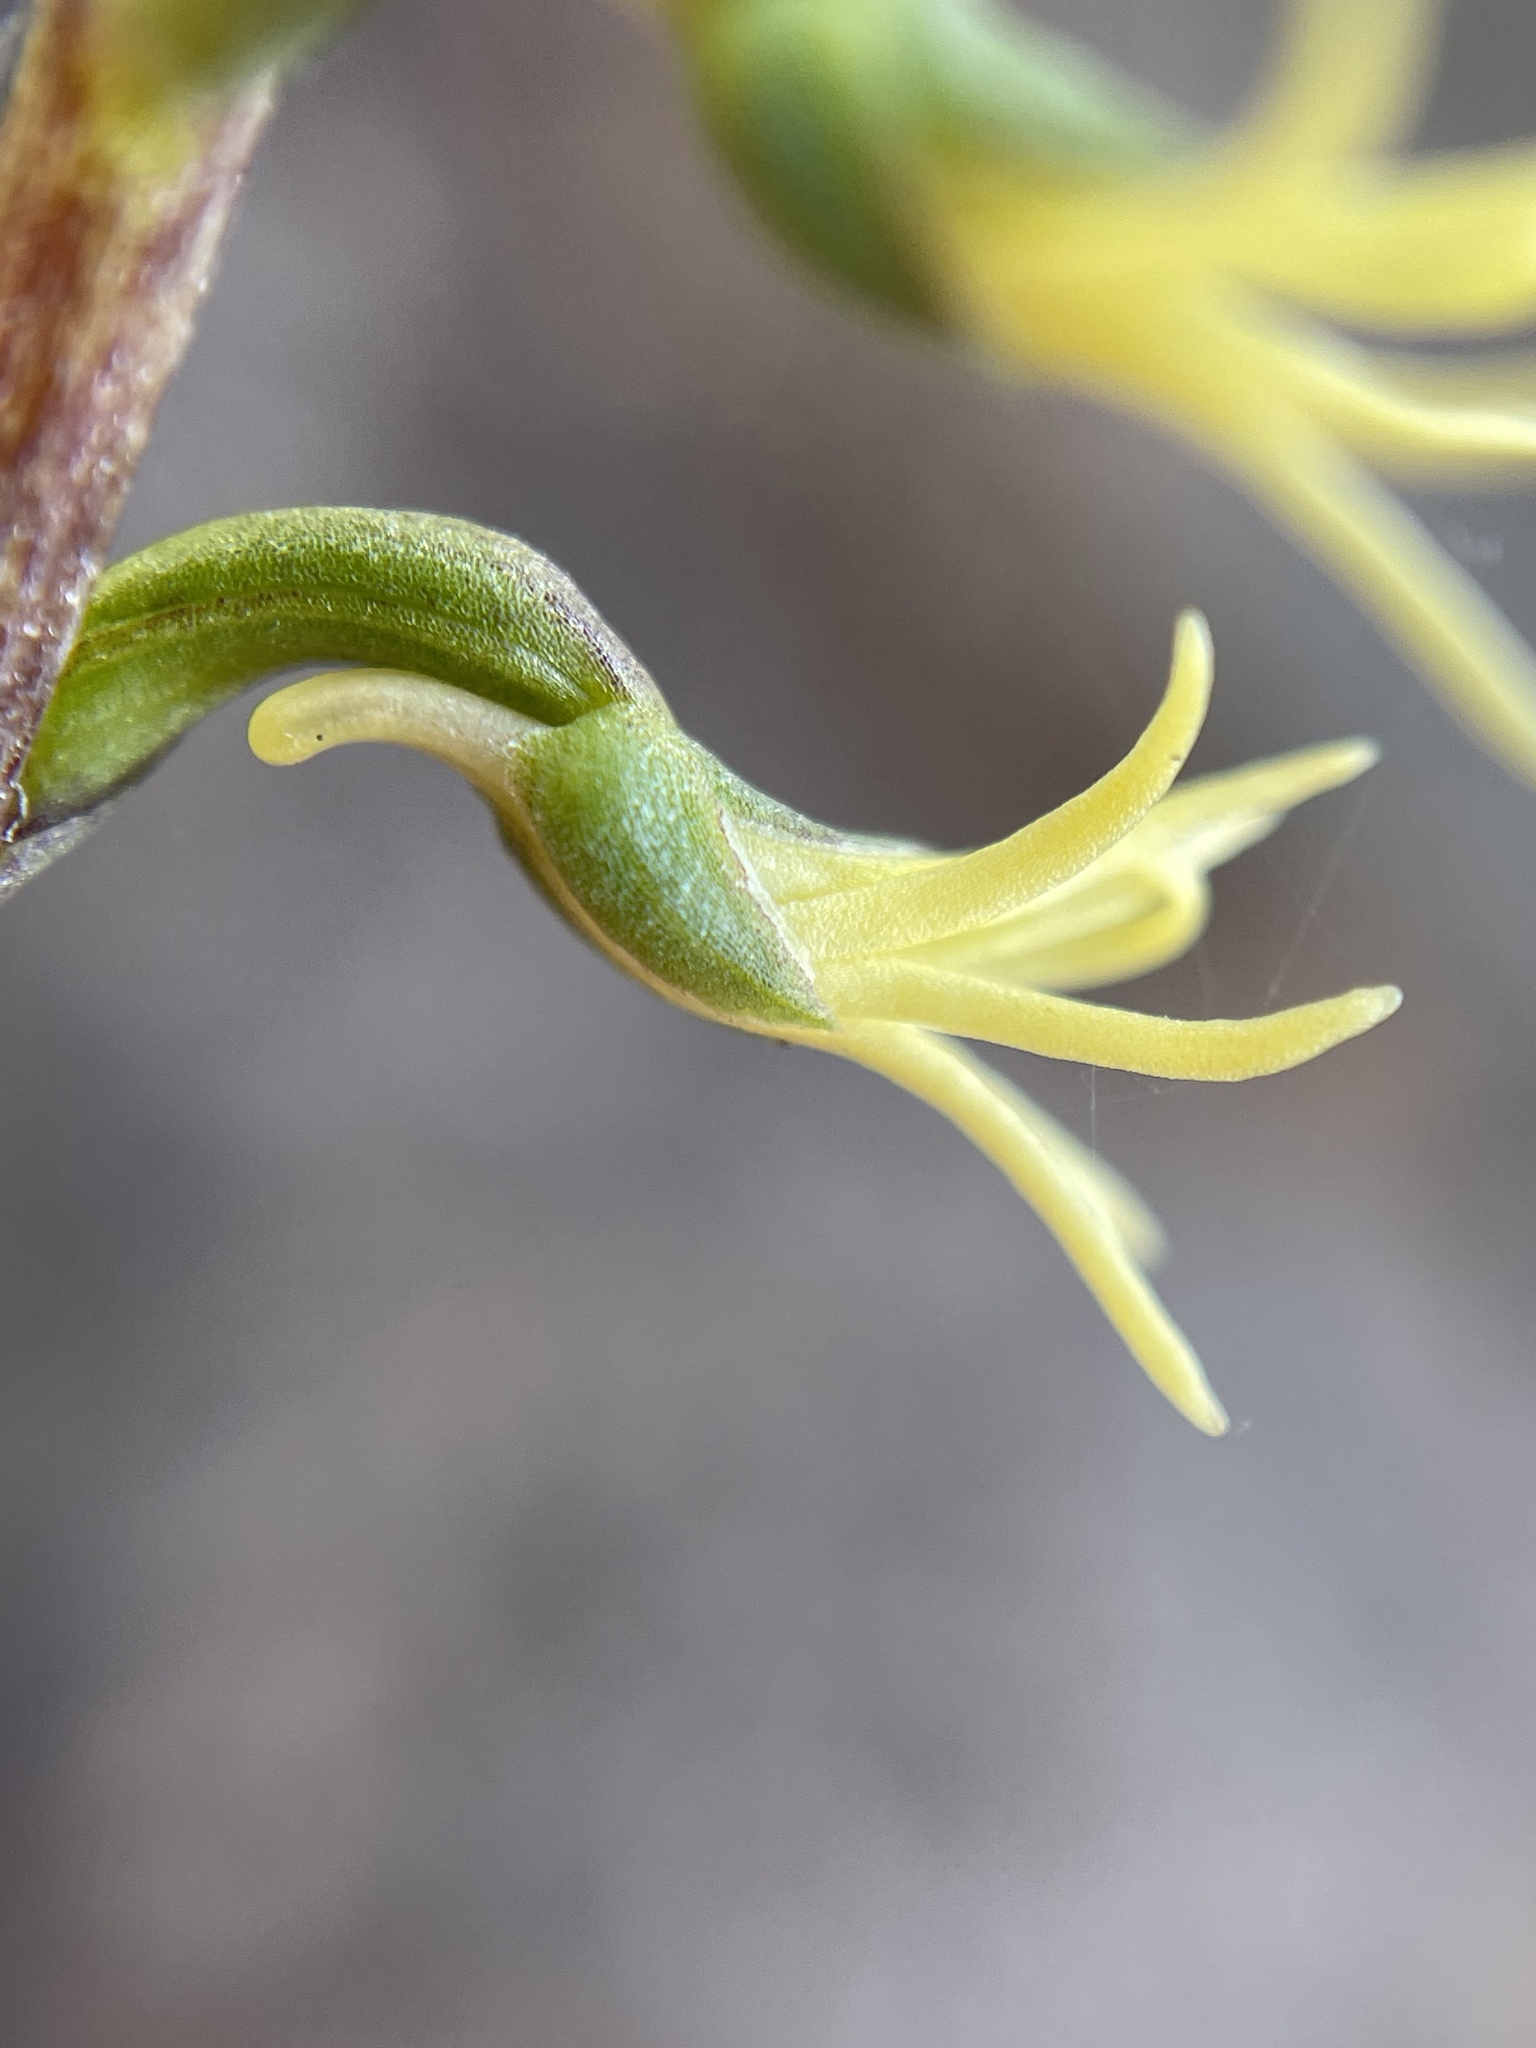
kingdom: Plantae
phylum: Tracheophyta
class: Liliopsida
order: Asparagales
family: Orchidaceae
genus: Holothrix
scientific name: Holothrix secunda
